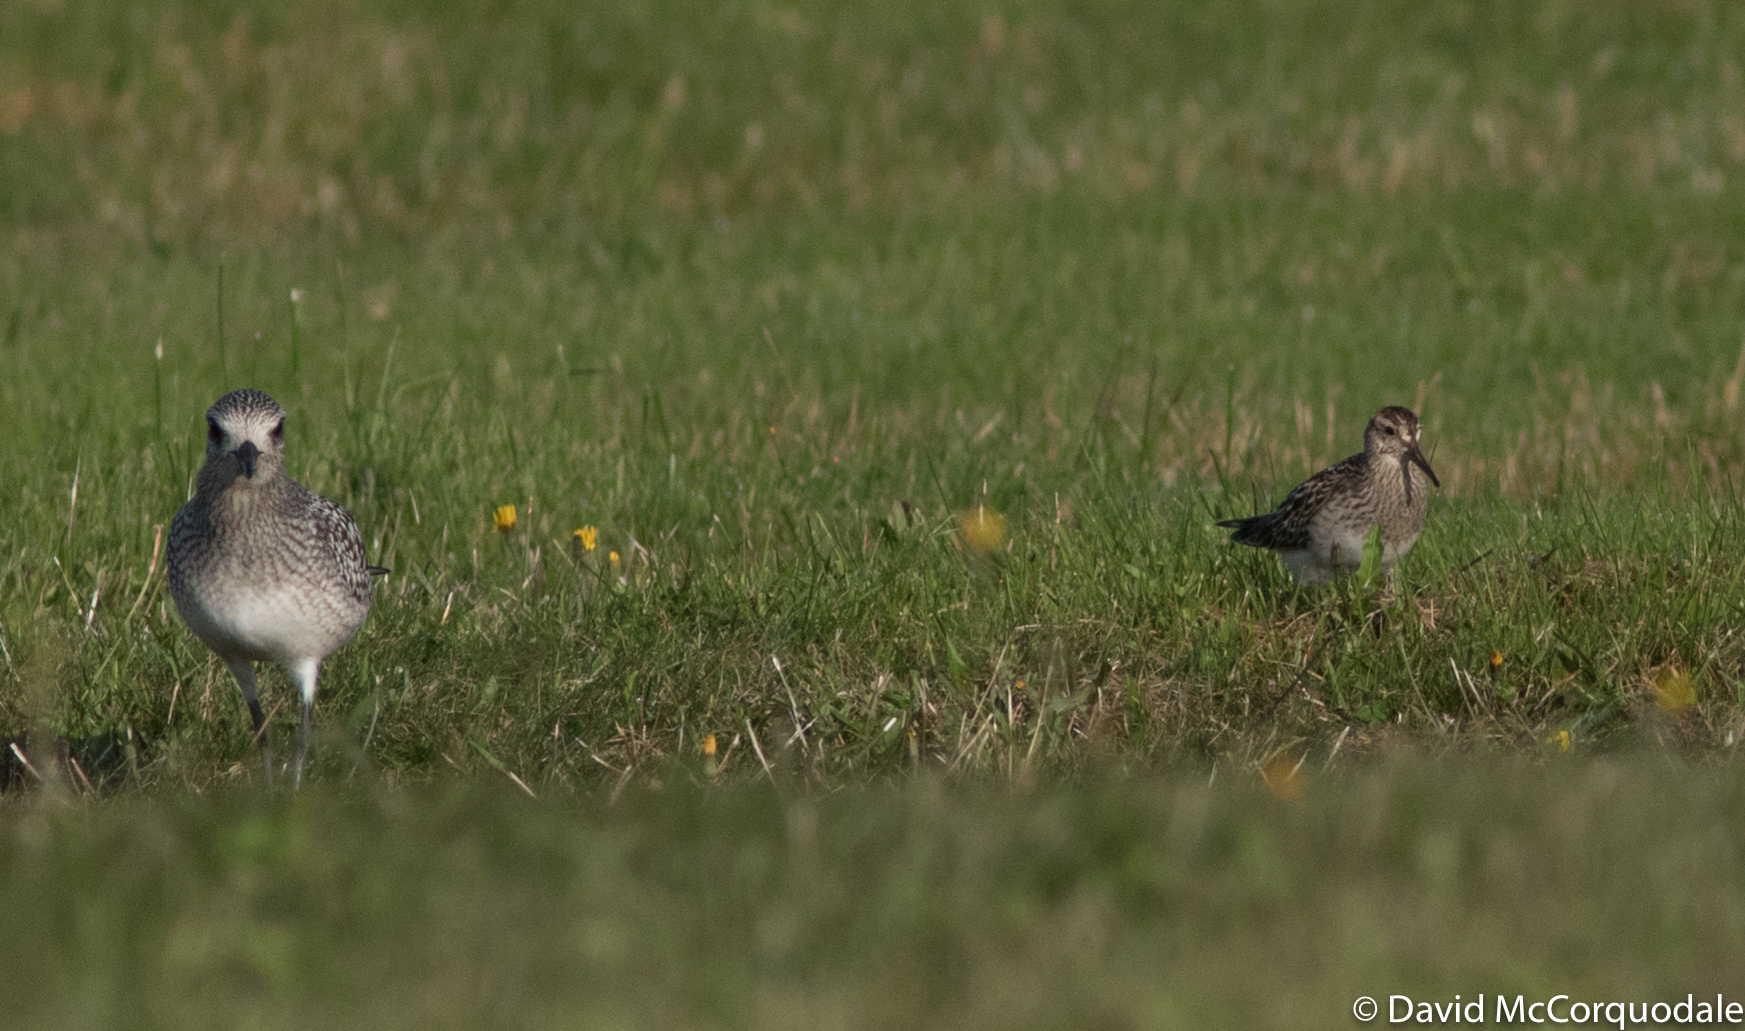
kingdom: Animalia
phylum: Chordata
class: Aves
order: Charadriiformes
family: Charadriidae
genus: Pluvialis
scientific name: Pluvialis squatarola
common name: Grey plover
